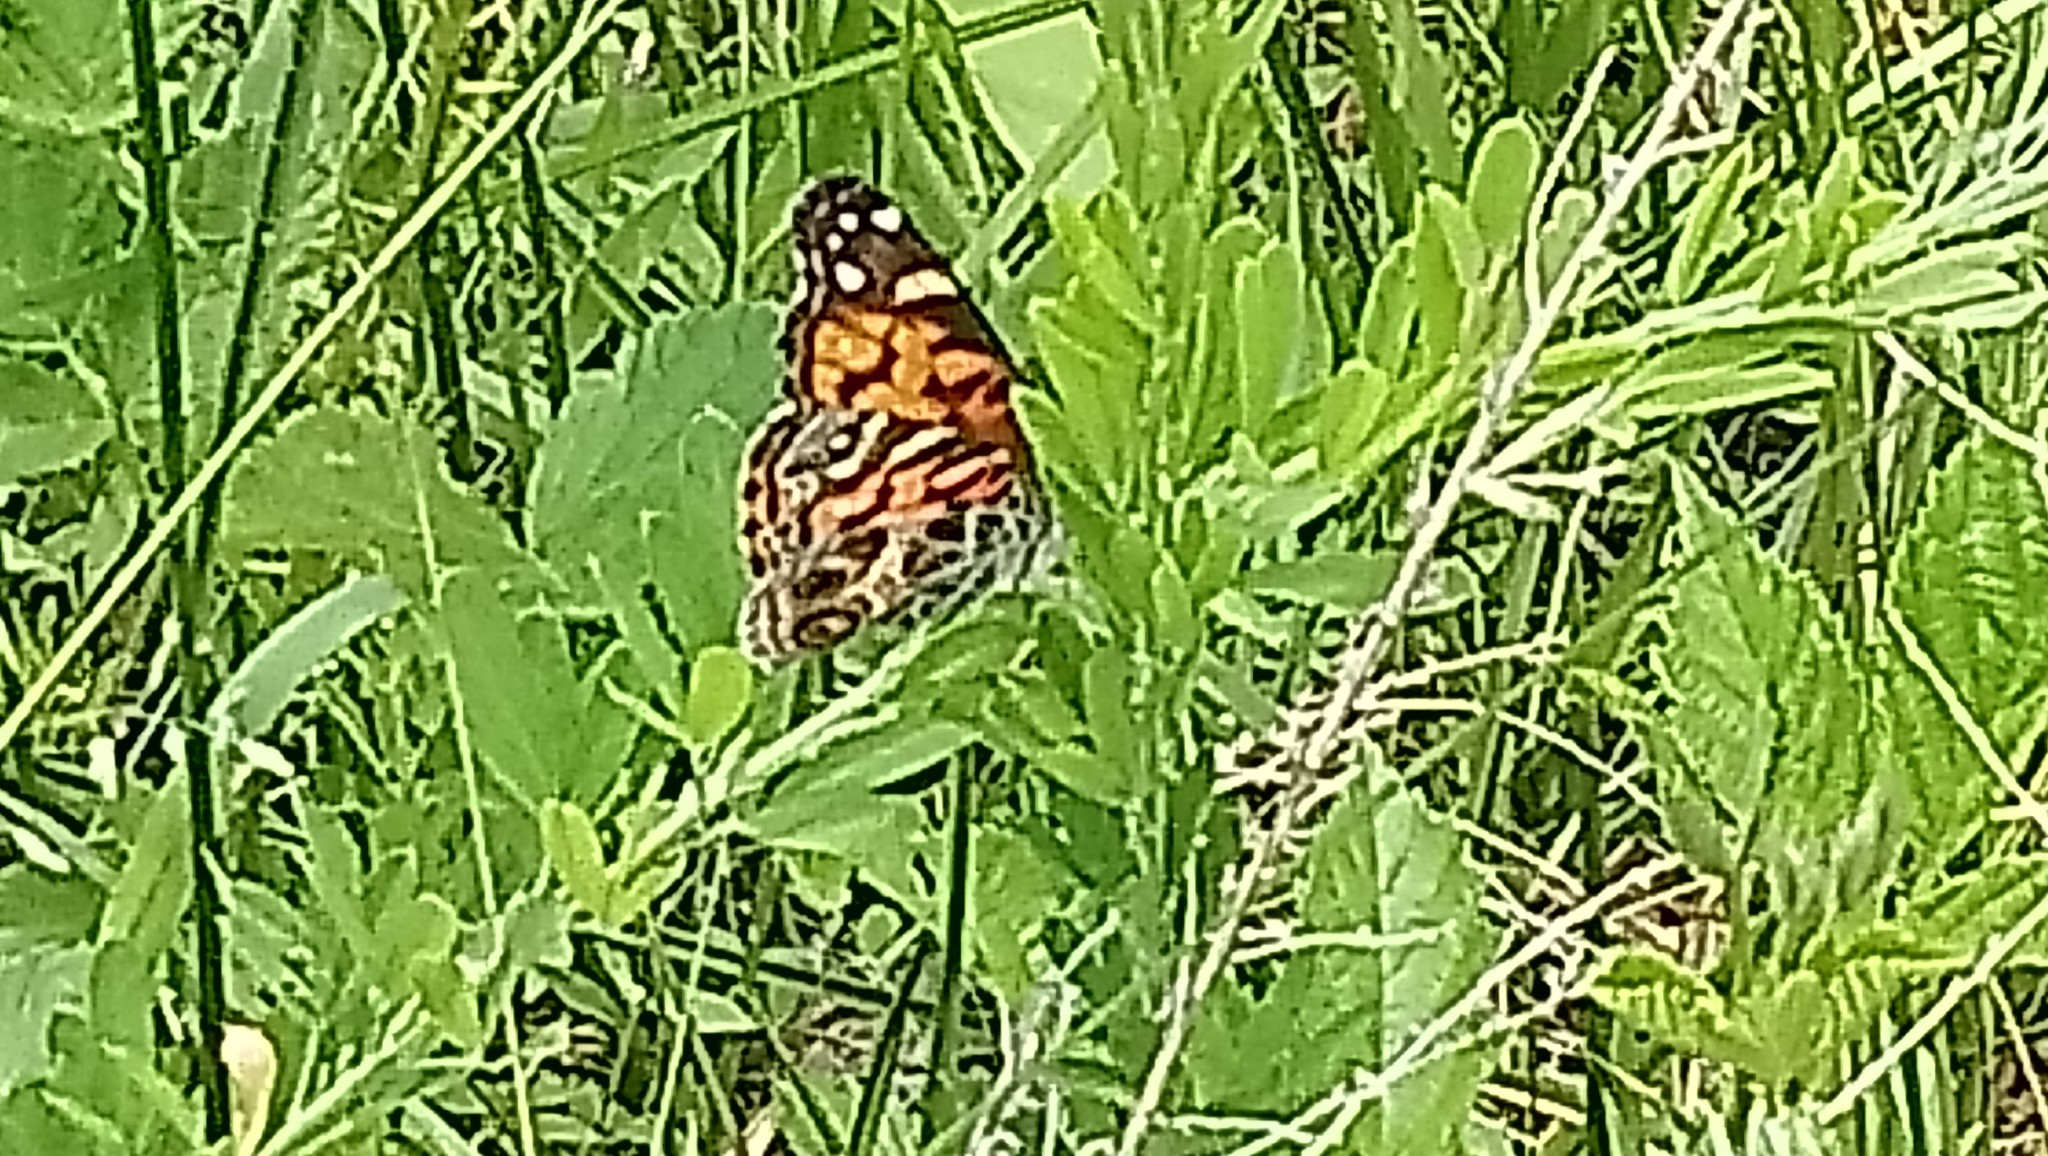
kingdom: Animalia
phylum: Arthropoda
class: Insecta
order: Lepidoptera
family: Nymphalidae
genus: Vanessa
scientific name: Vanessa virginiensis
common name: American lady
